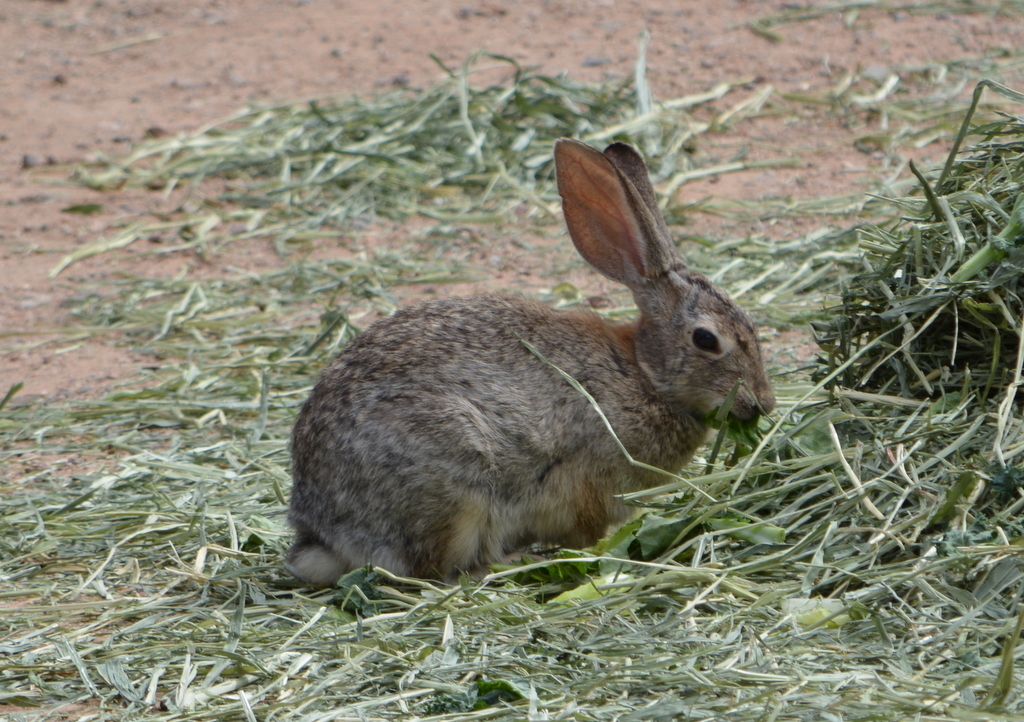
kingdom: Animalia
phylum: Chordata
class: Mammalia
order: Lagomorpha
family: Leporidae
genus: Sylvilagus
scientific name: Sylvilagus audubonii
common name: Desert cottontail
